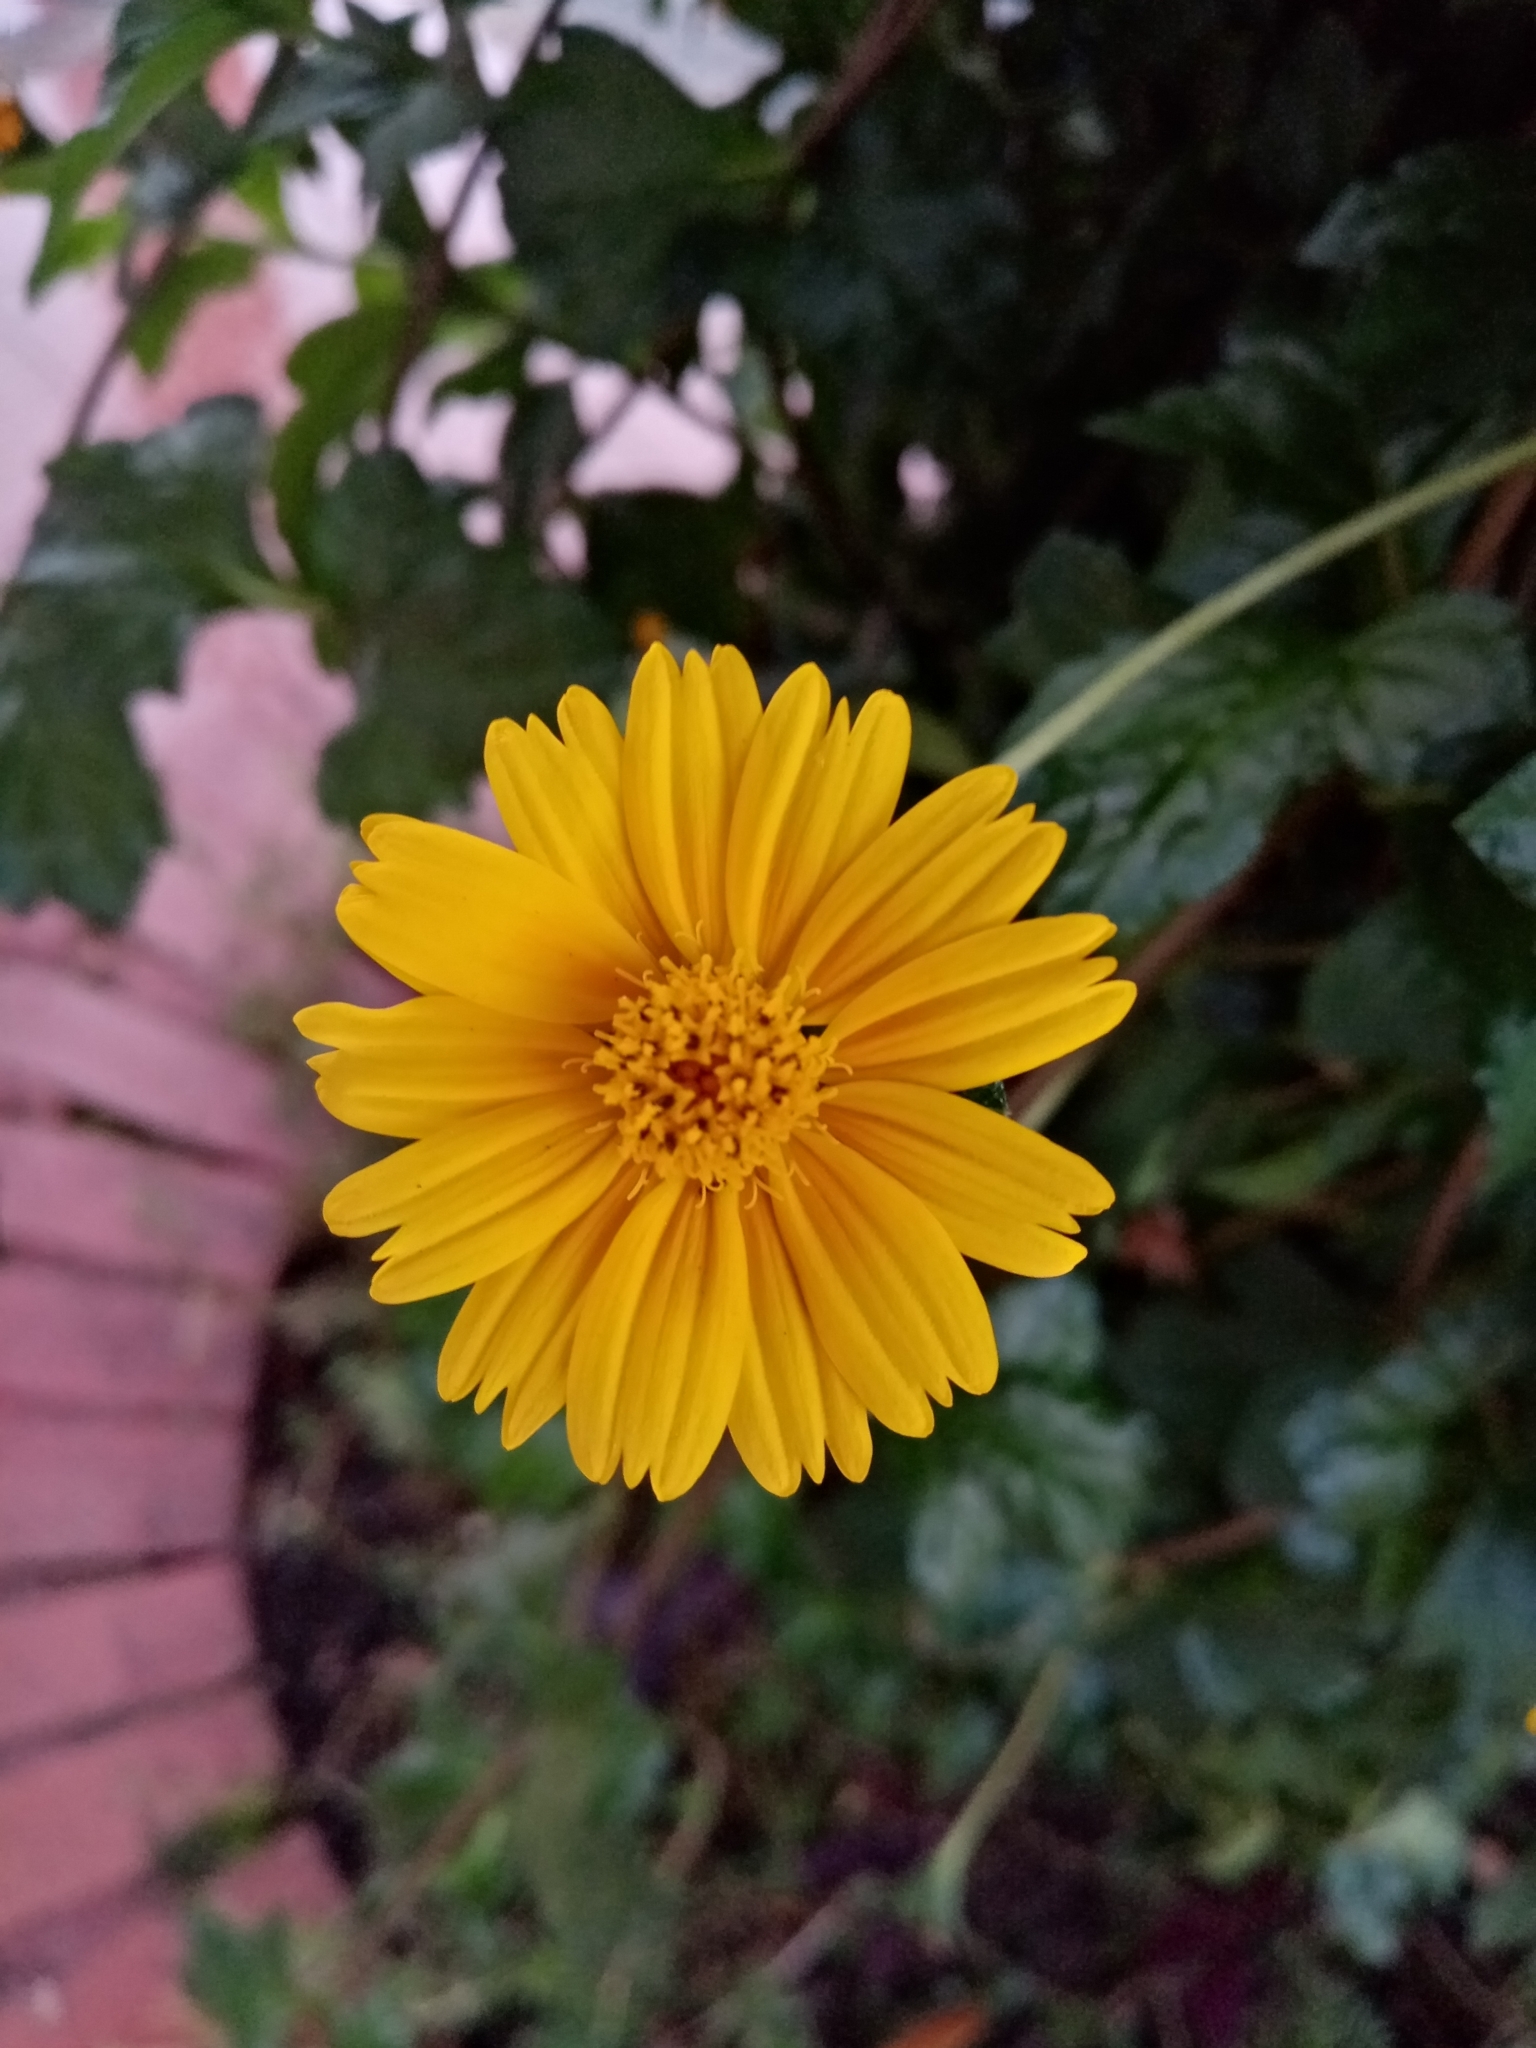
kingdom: Plantae
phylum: Tracheophyta
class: Magnoliopsida
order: Asterales
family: Asteraceae
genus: Sphagneticola
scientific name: Sphagneticola trilobata
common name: Bay biscayne creeping-oxeye
